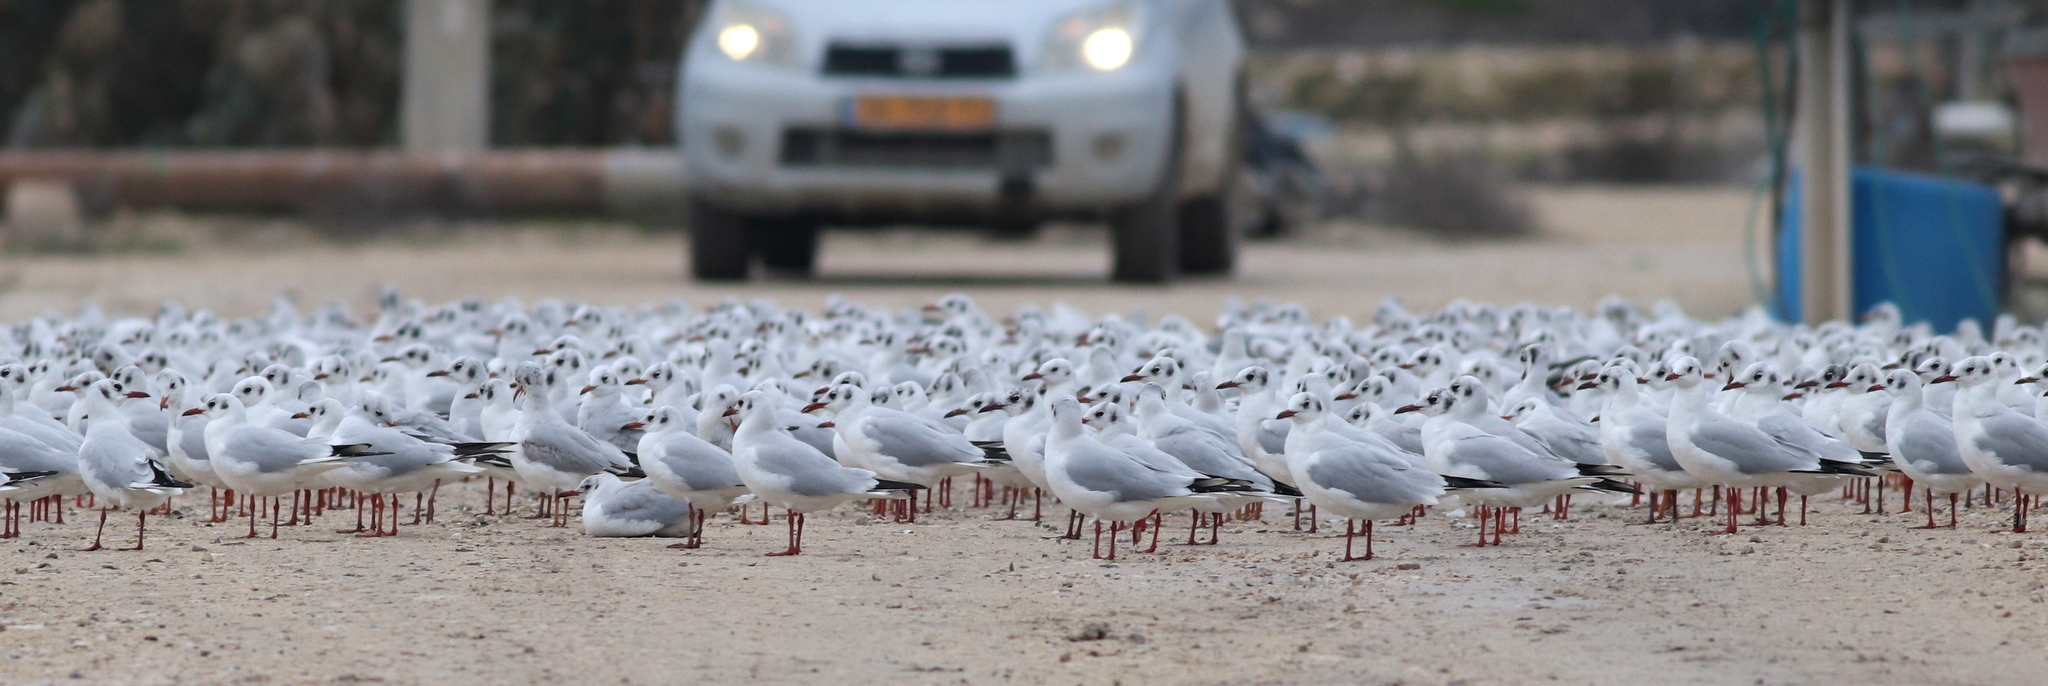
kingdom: Animalia
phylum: Chordata
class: Aves
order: Charadriiformes
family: Laridae
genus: Chroicocephalus
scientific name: Chroicocephalus ridibundus
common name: Black-headed gull
